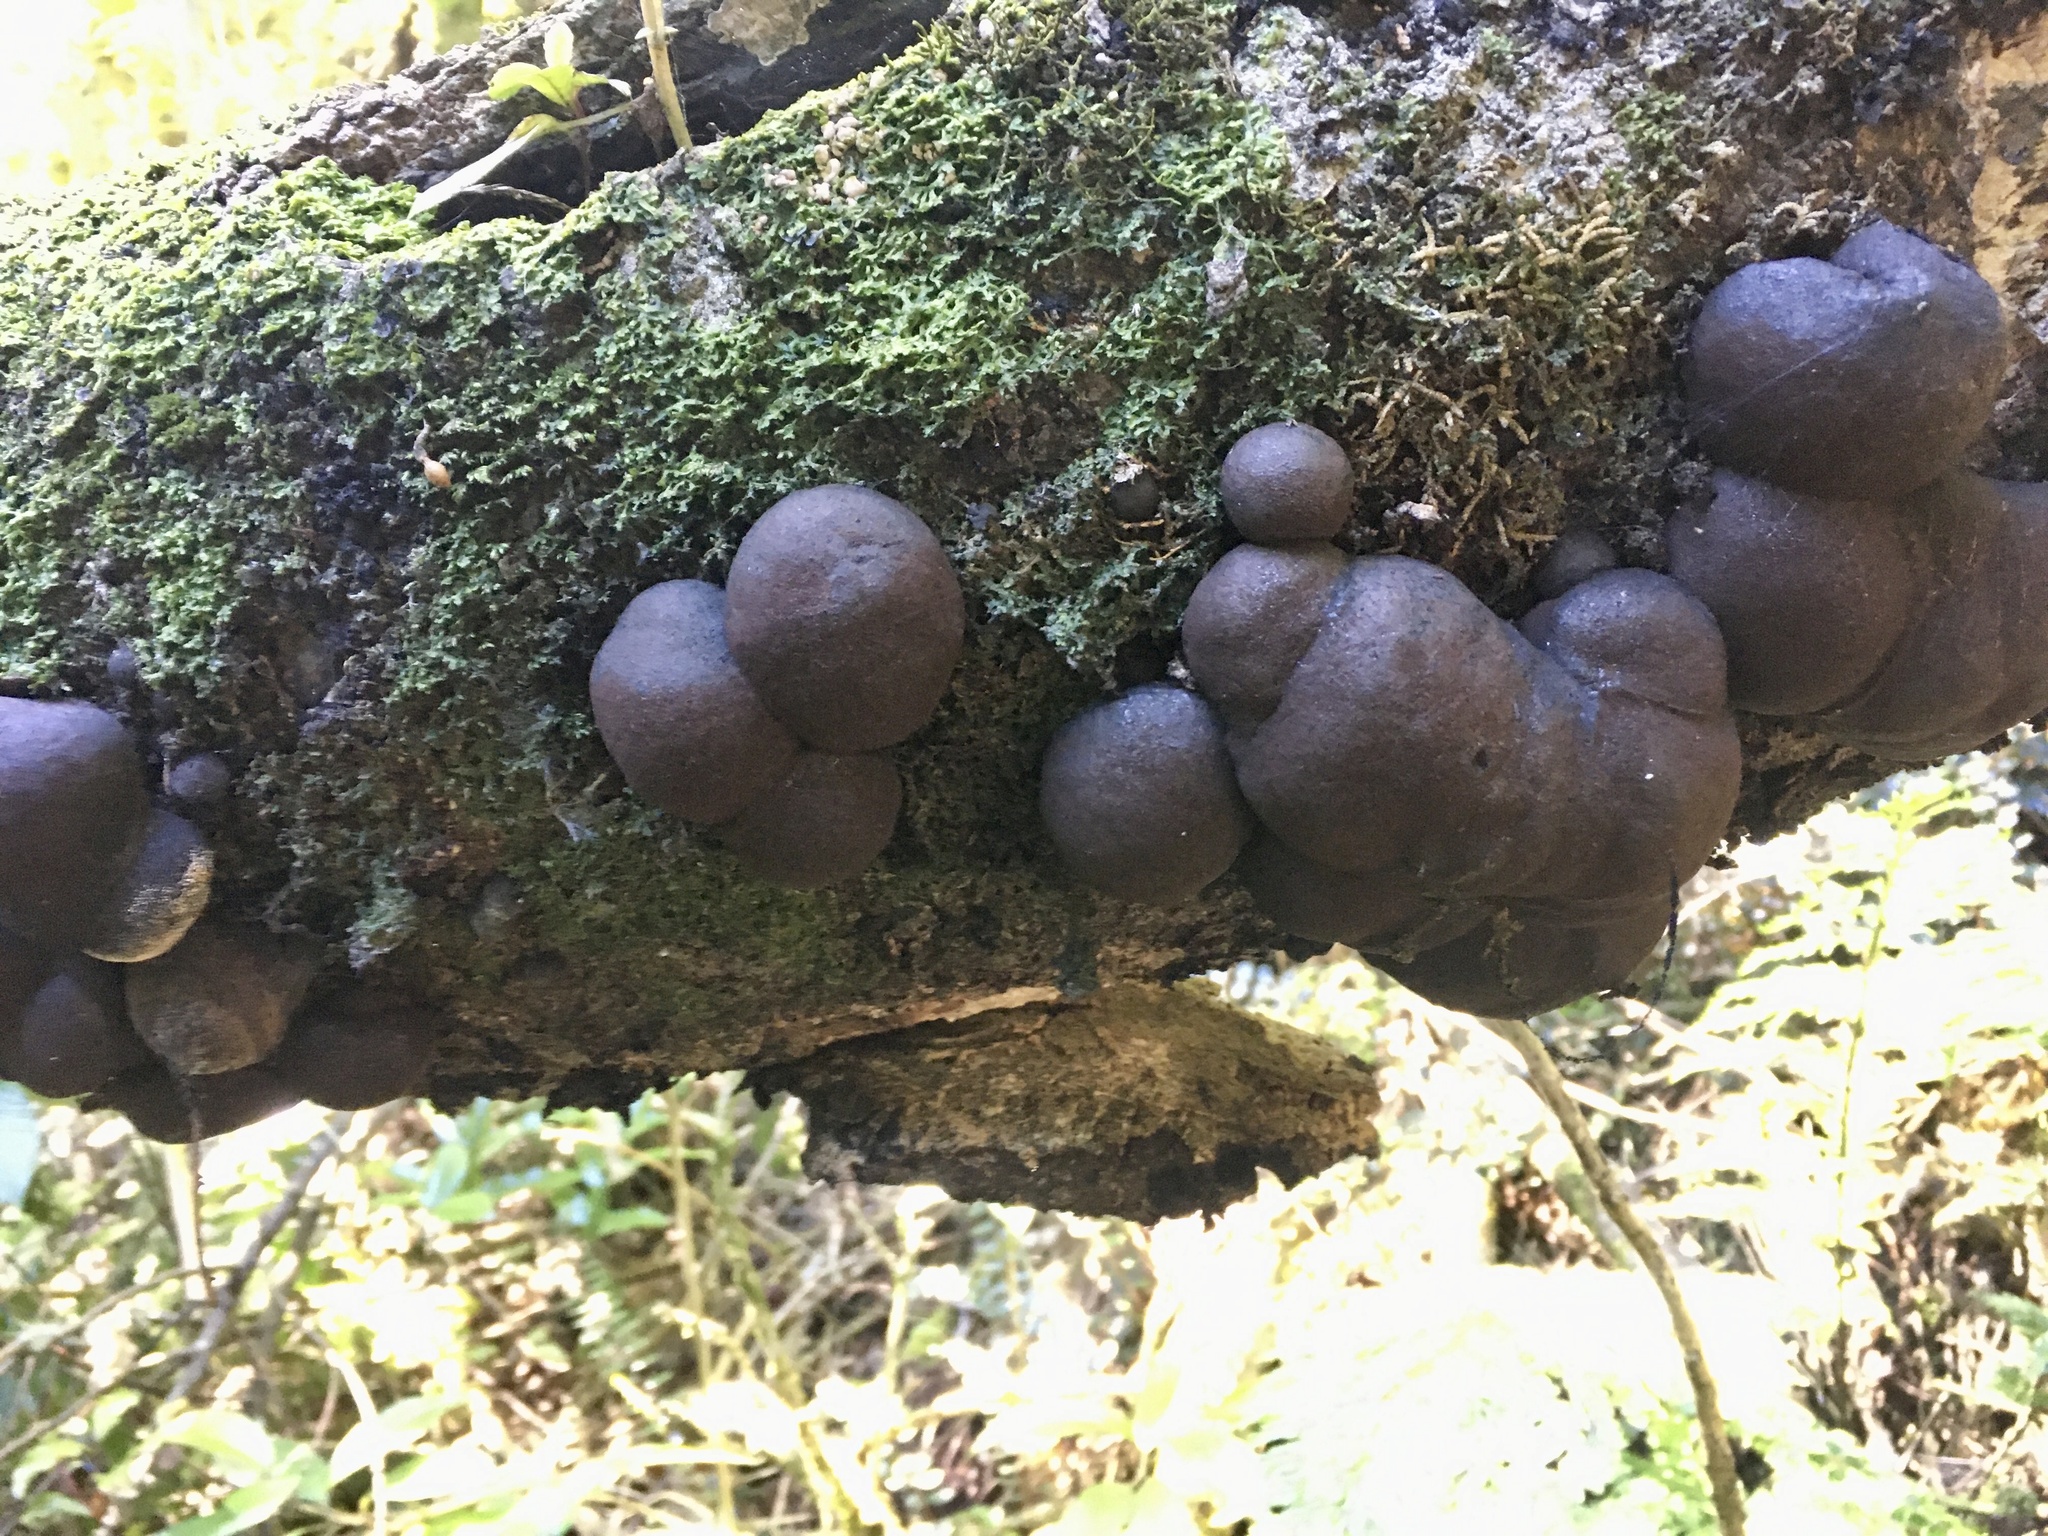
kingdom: Fungi
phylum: Ascomycota
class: Sordariomycetes
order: Xylariales
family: Hypoxylaceae
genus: Daldinia
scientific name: Daldinia
